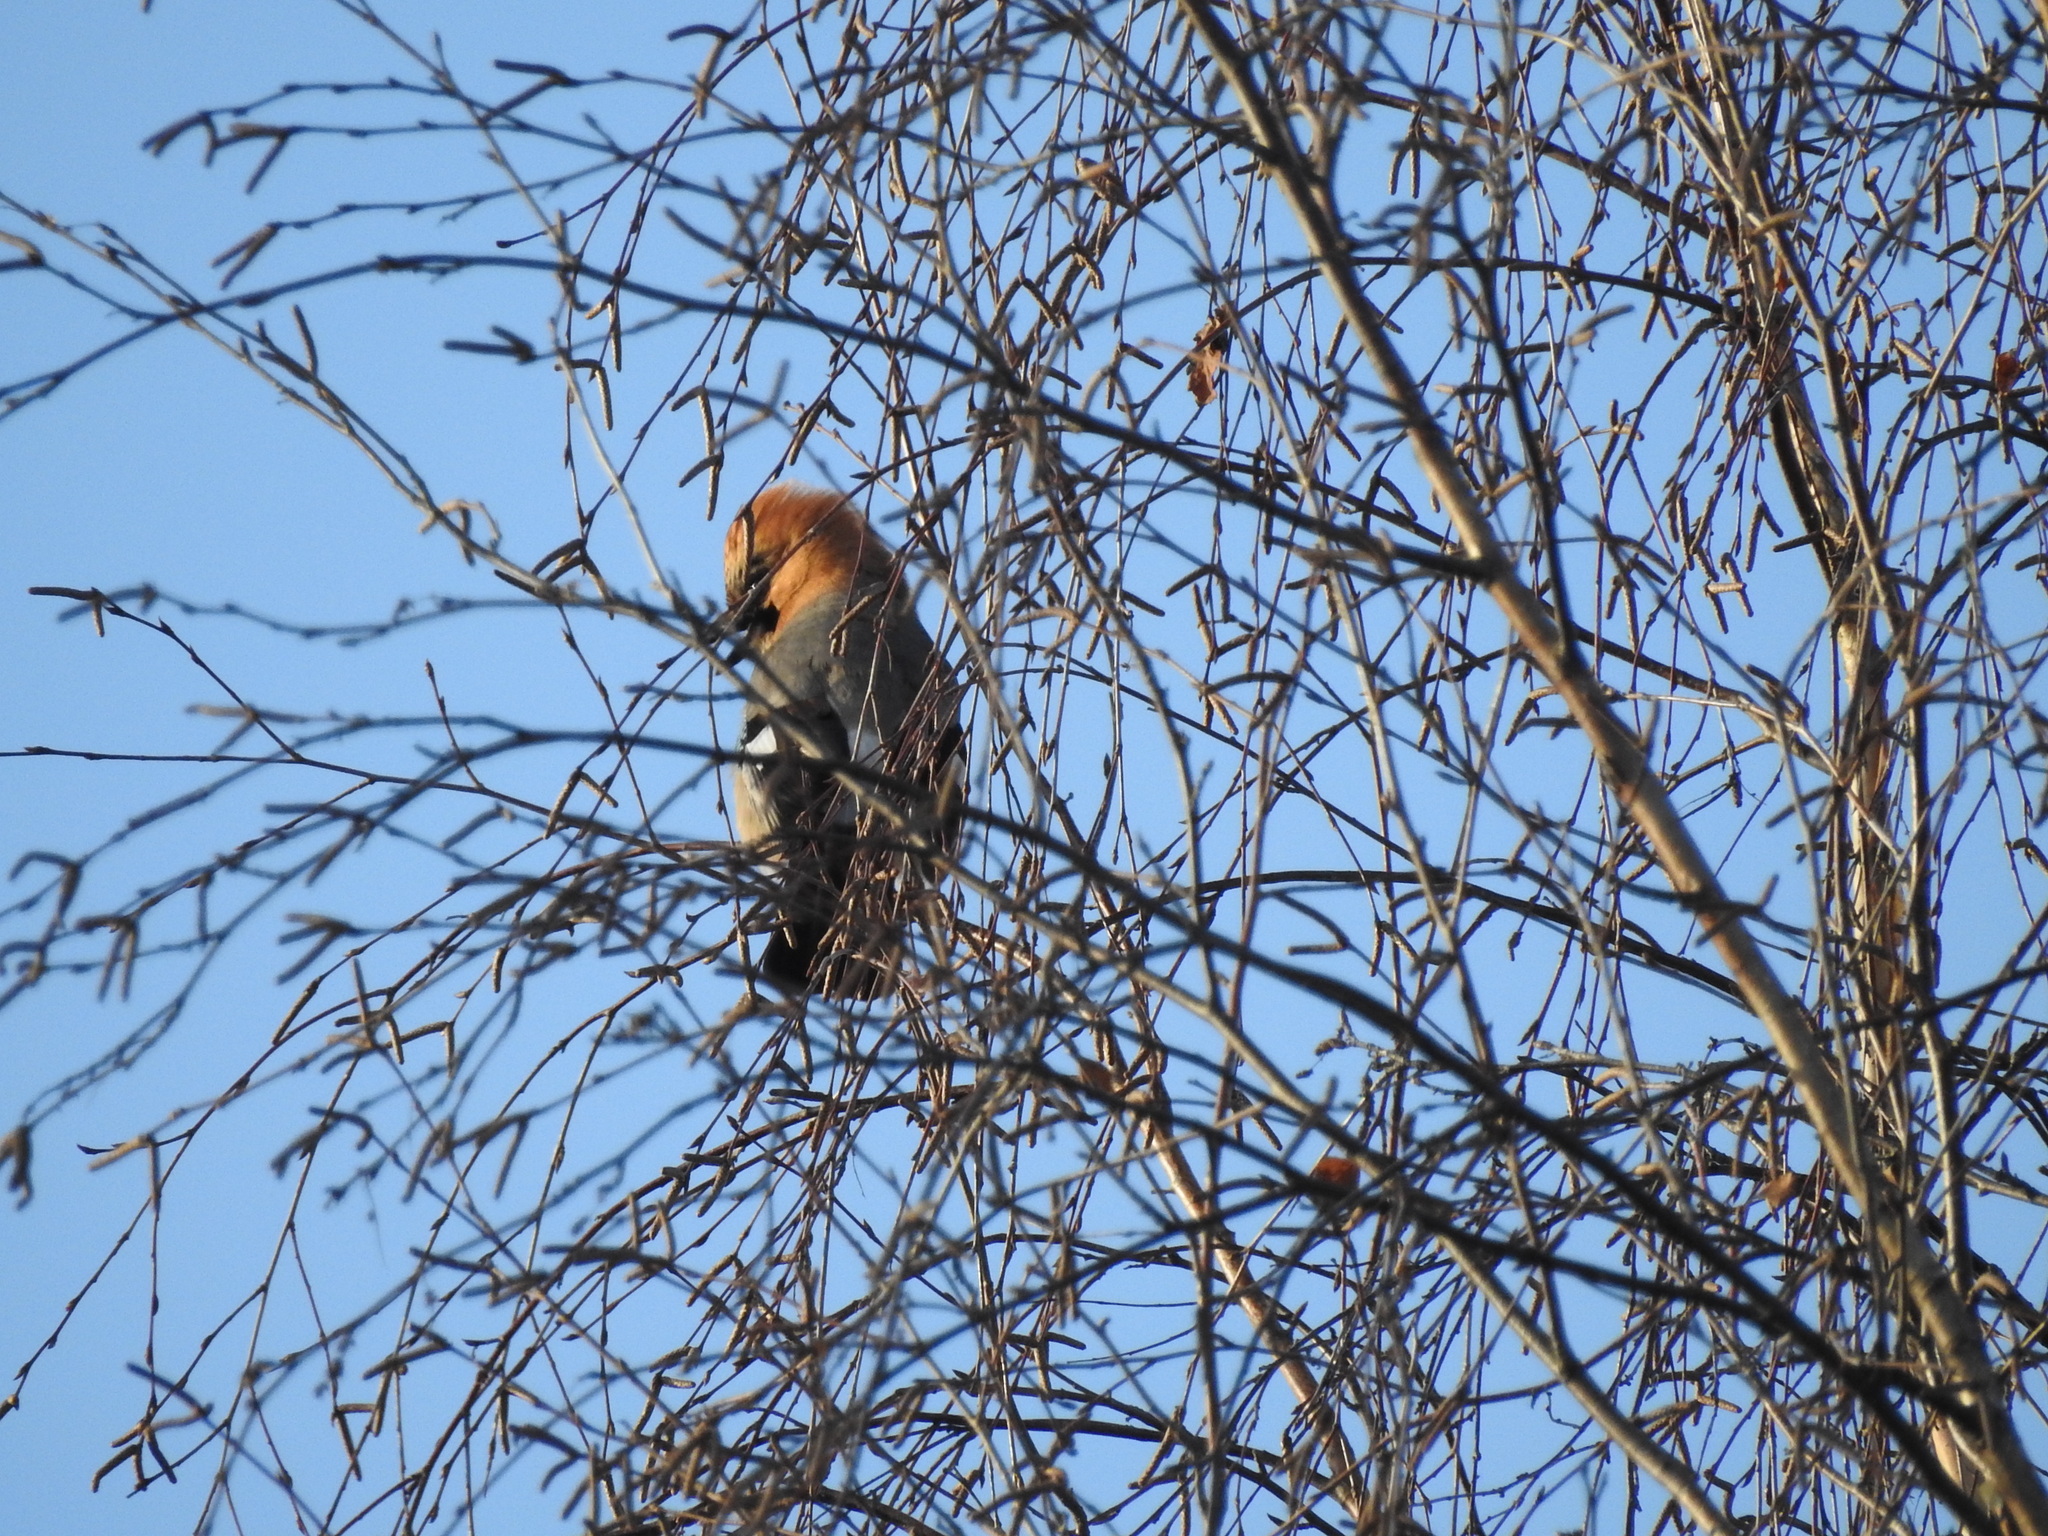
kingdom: Animalia
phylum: Chordata
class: Aves
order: Passeriformes
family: Corvidae
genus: Garrulus
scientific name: Garrulus glandarius
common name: Eurasian jay
